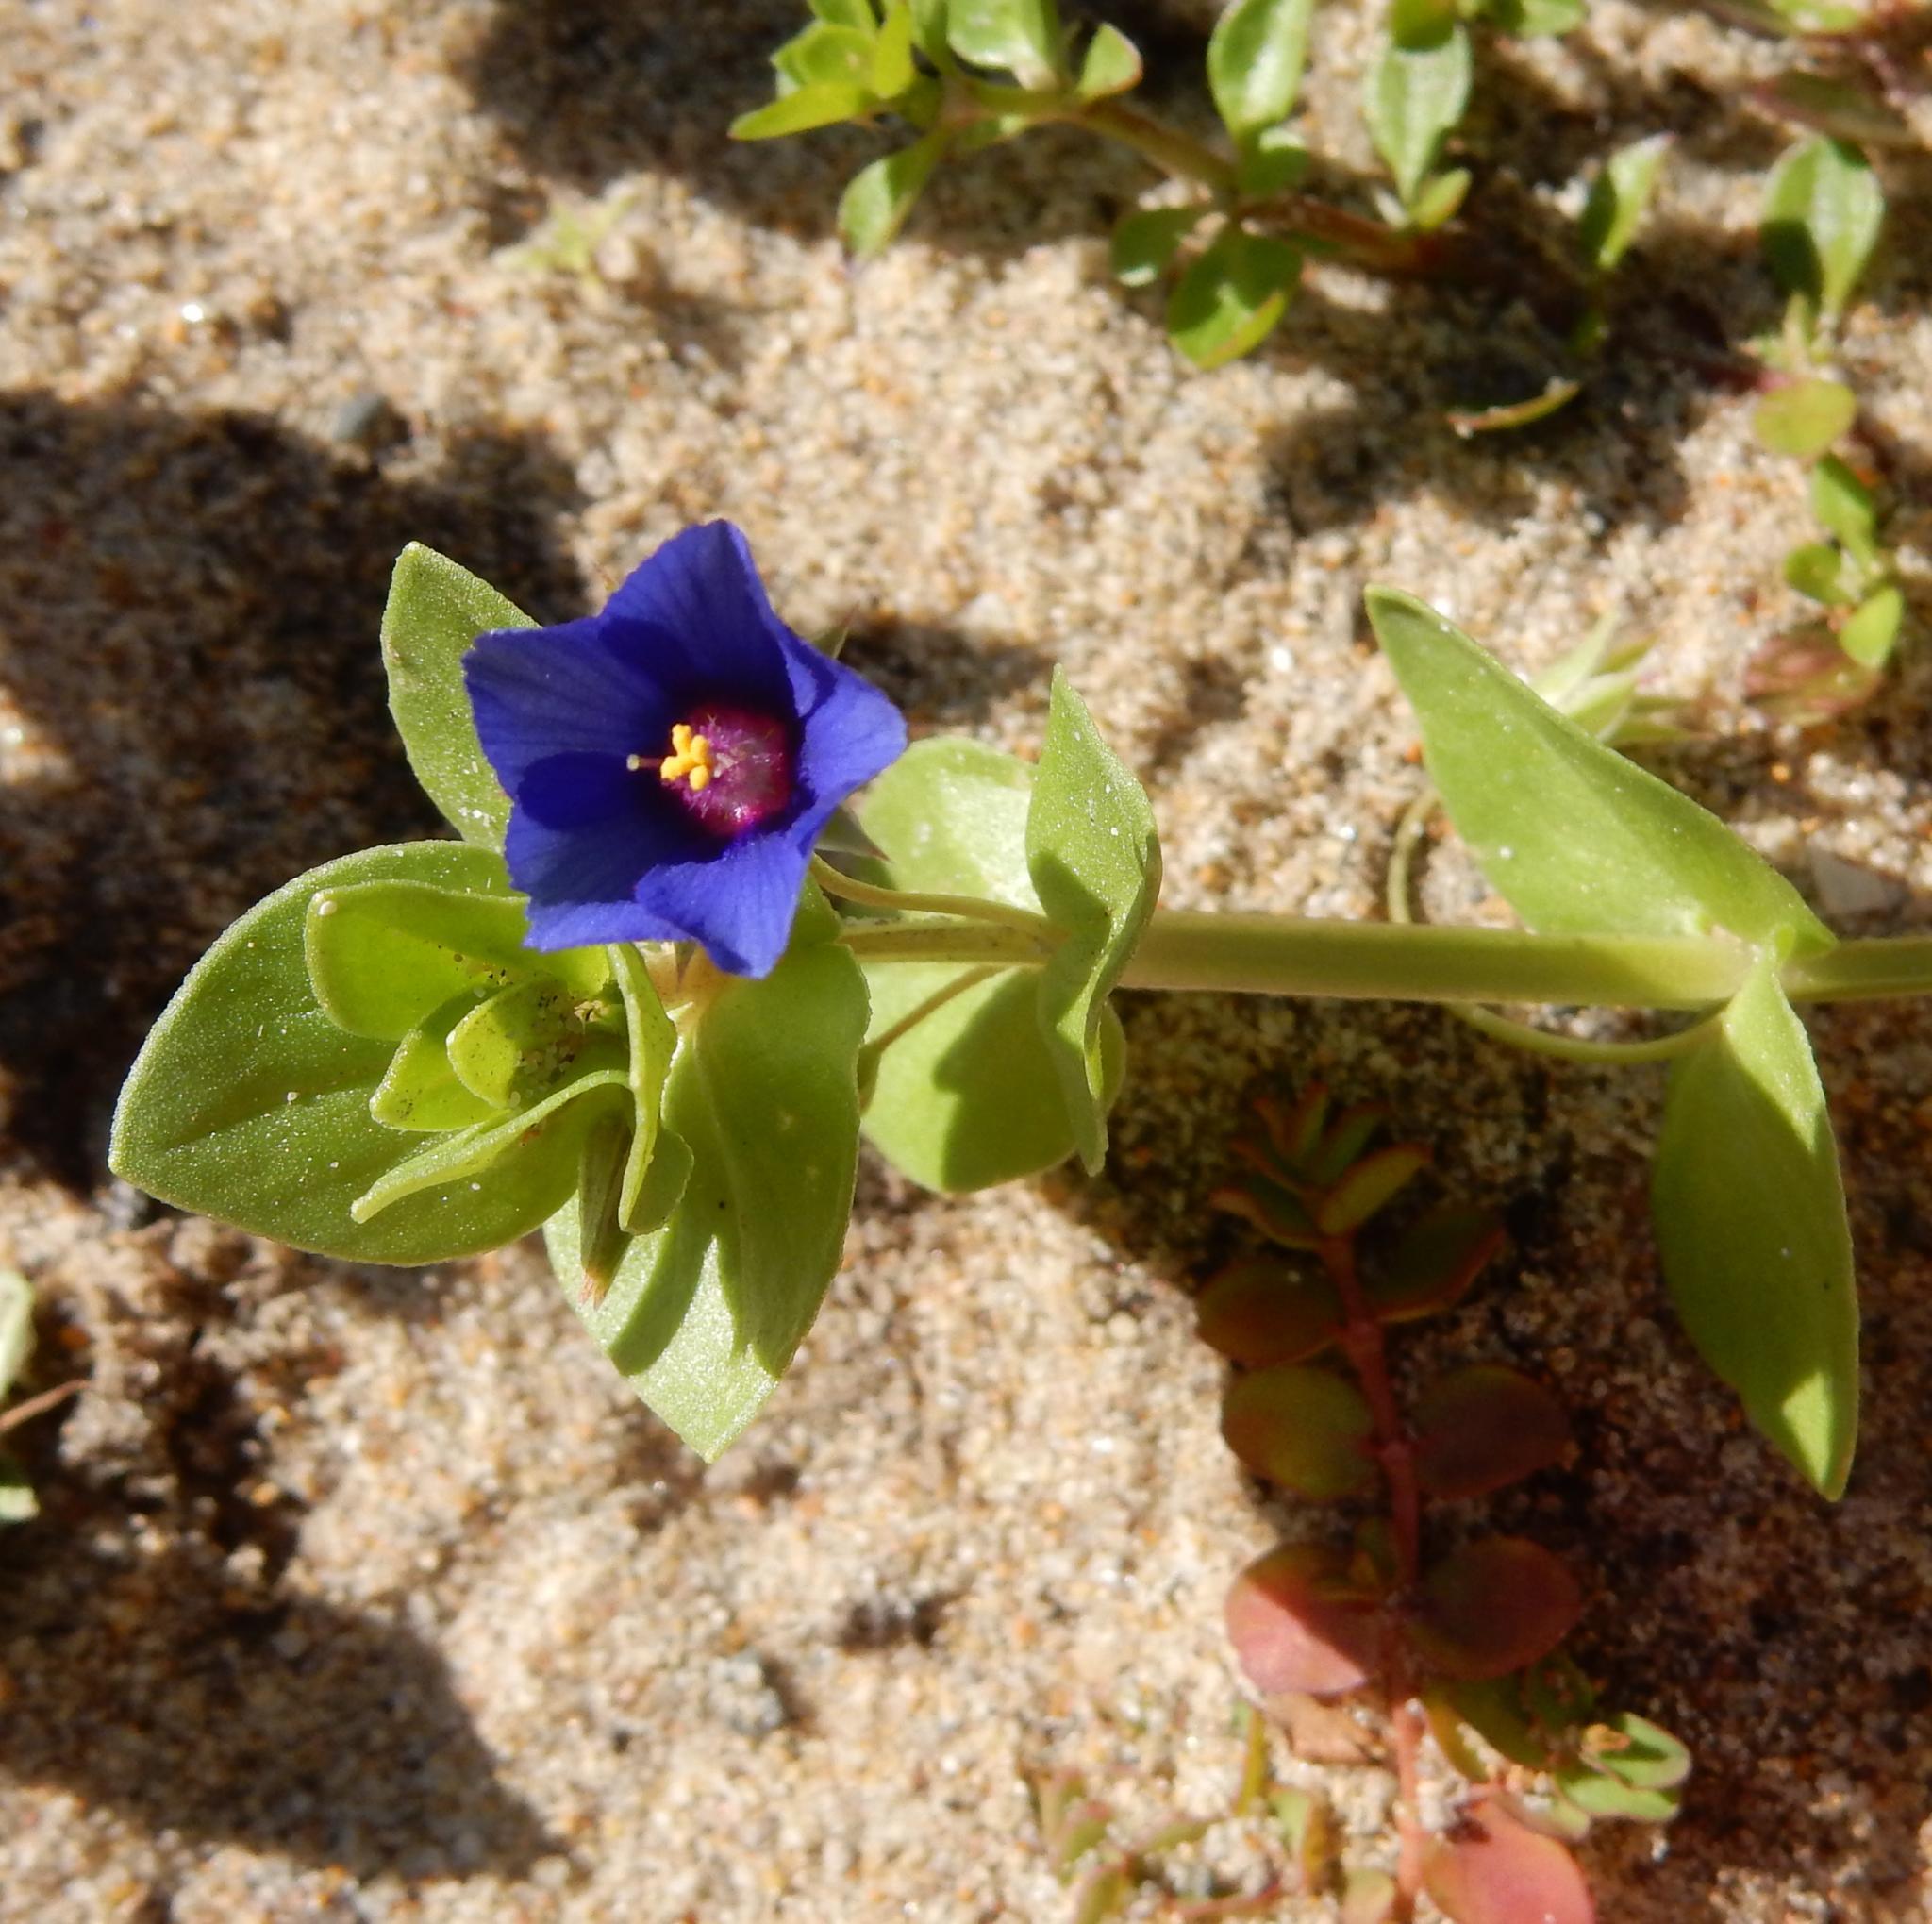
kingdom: Plantae
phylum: Tracheophyta
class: Magnoliopsida
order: Ericales
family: Primulaceae
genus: Lysimachia
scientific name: Lysimachia loeflingii
